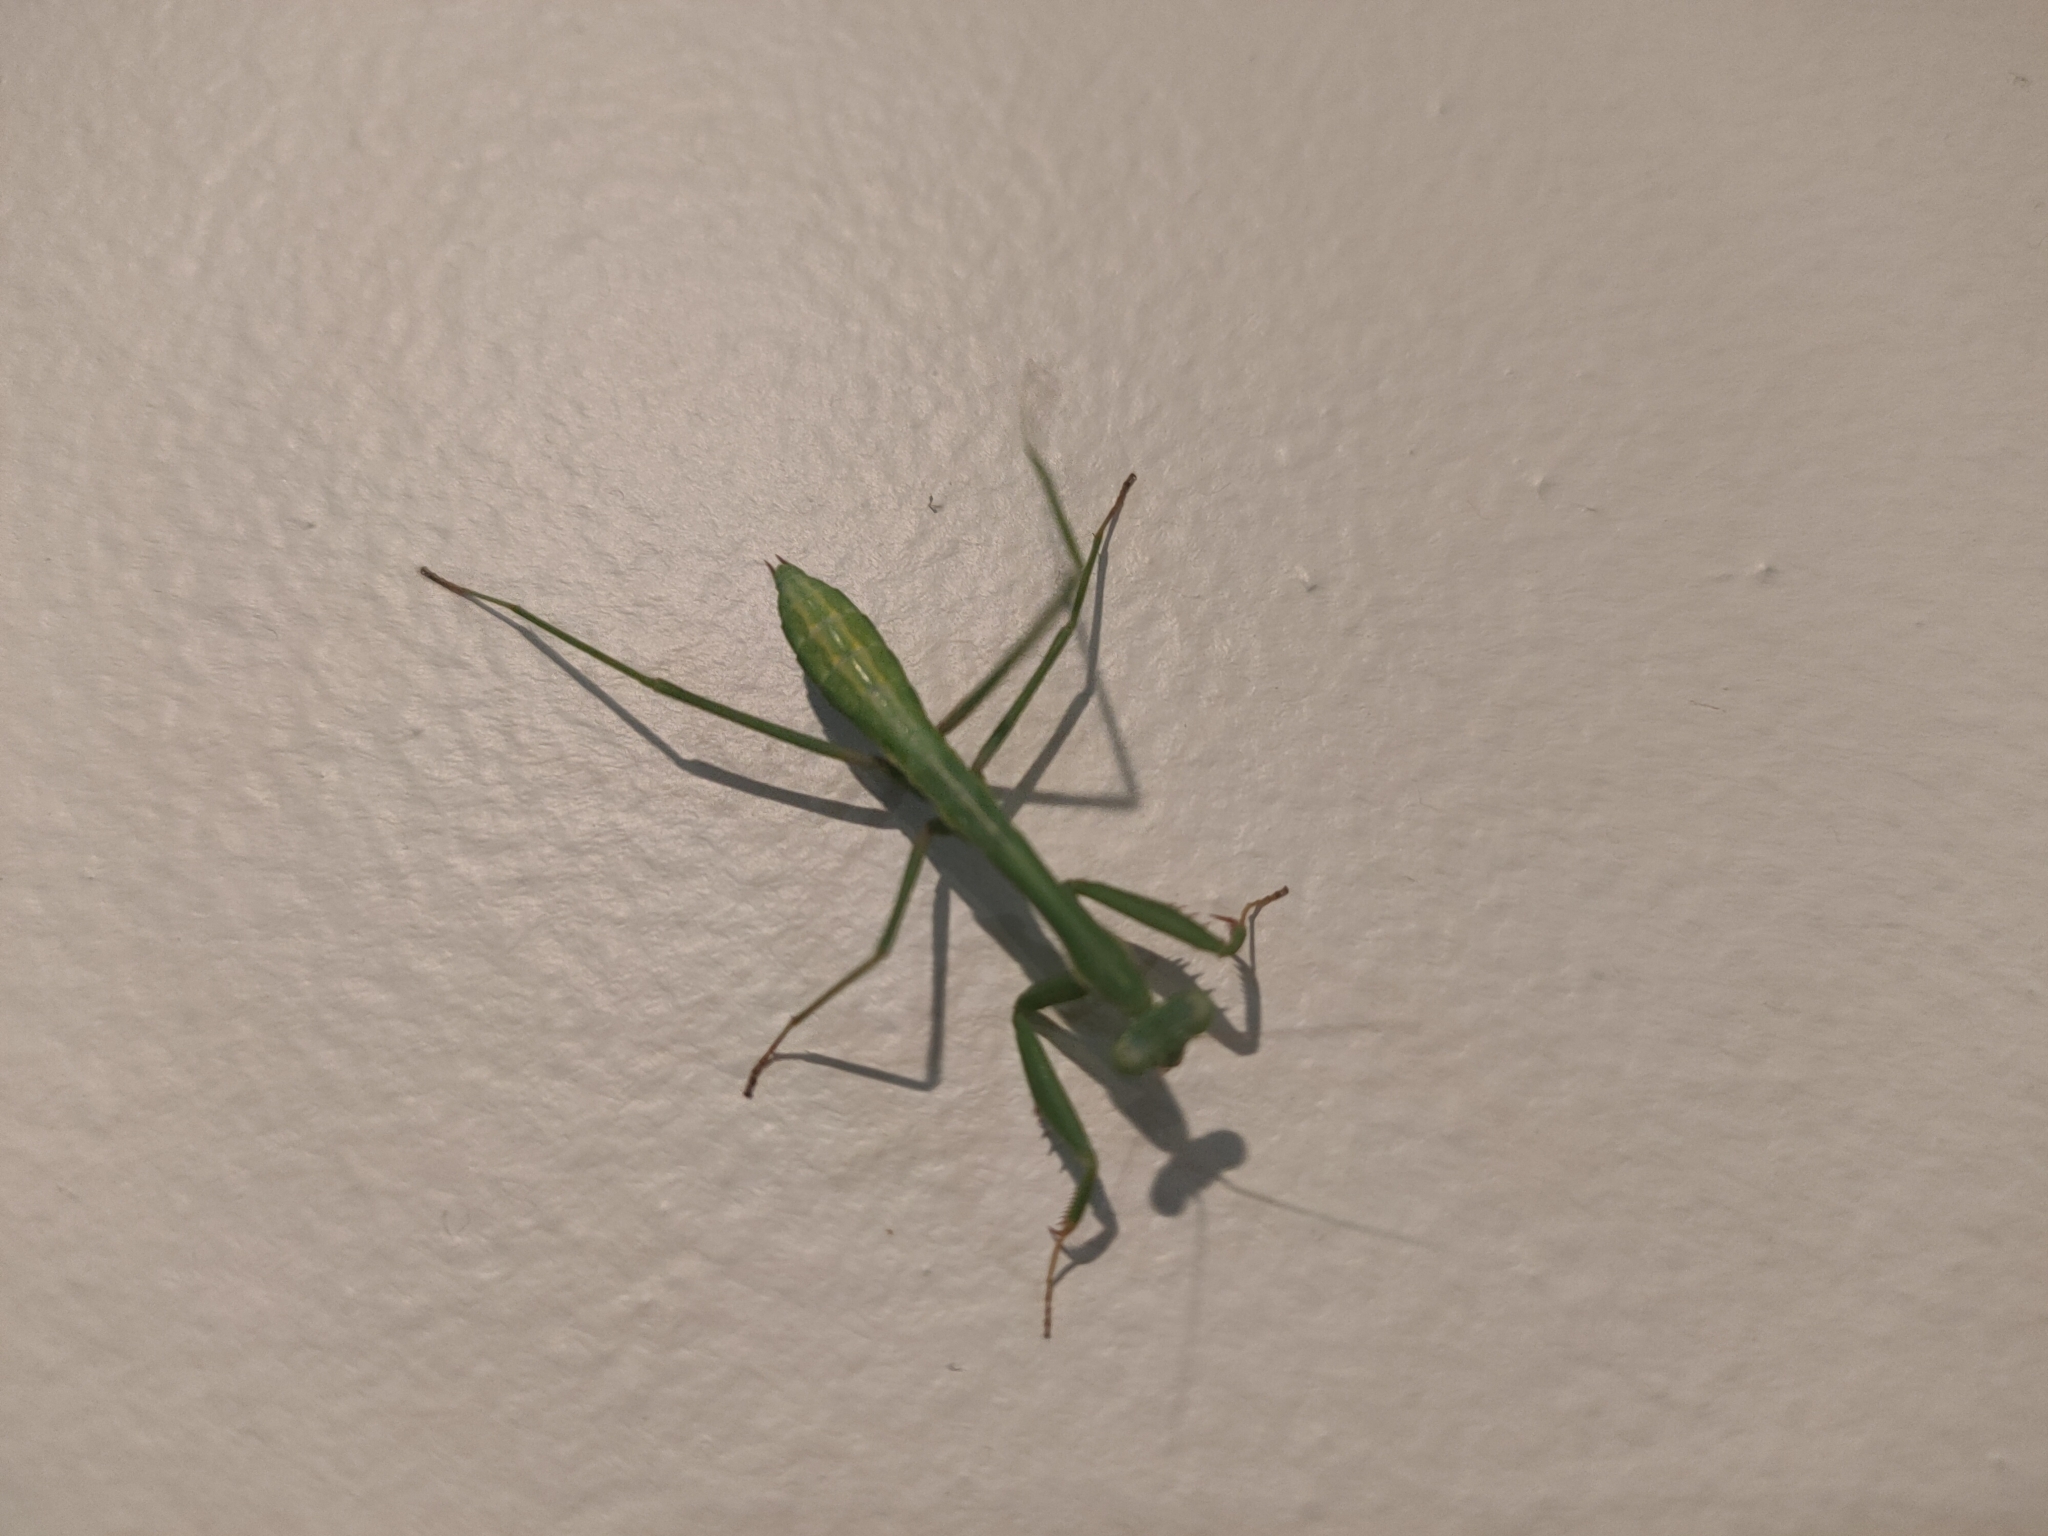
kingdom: Animalia
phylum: Arthropoda
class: Insecta
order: Mantodea
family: Mantidae
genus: Pseudomantis
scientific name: Pseudomantis albofimbriata
